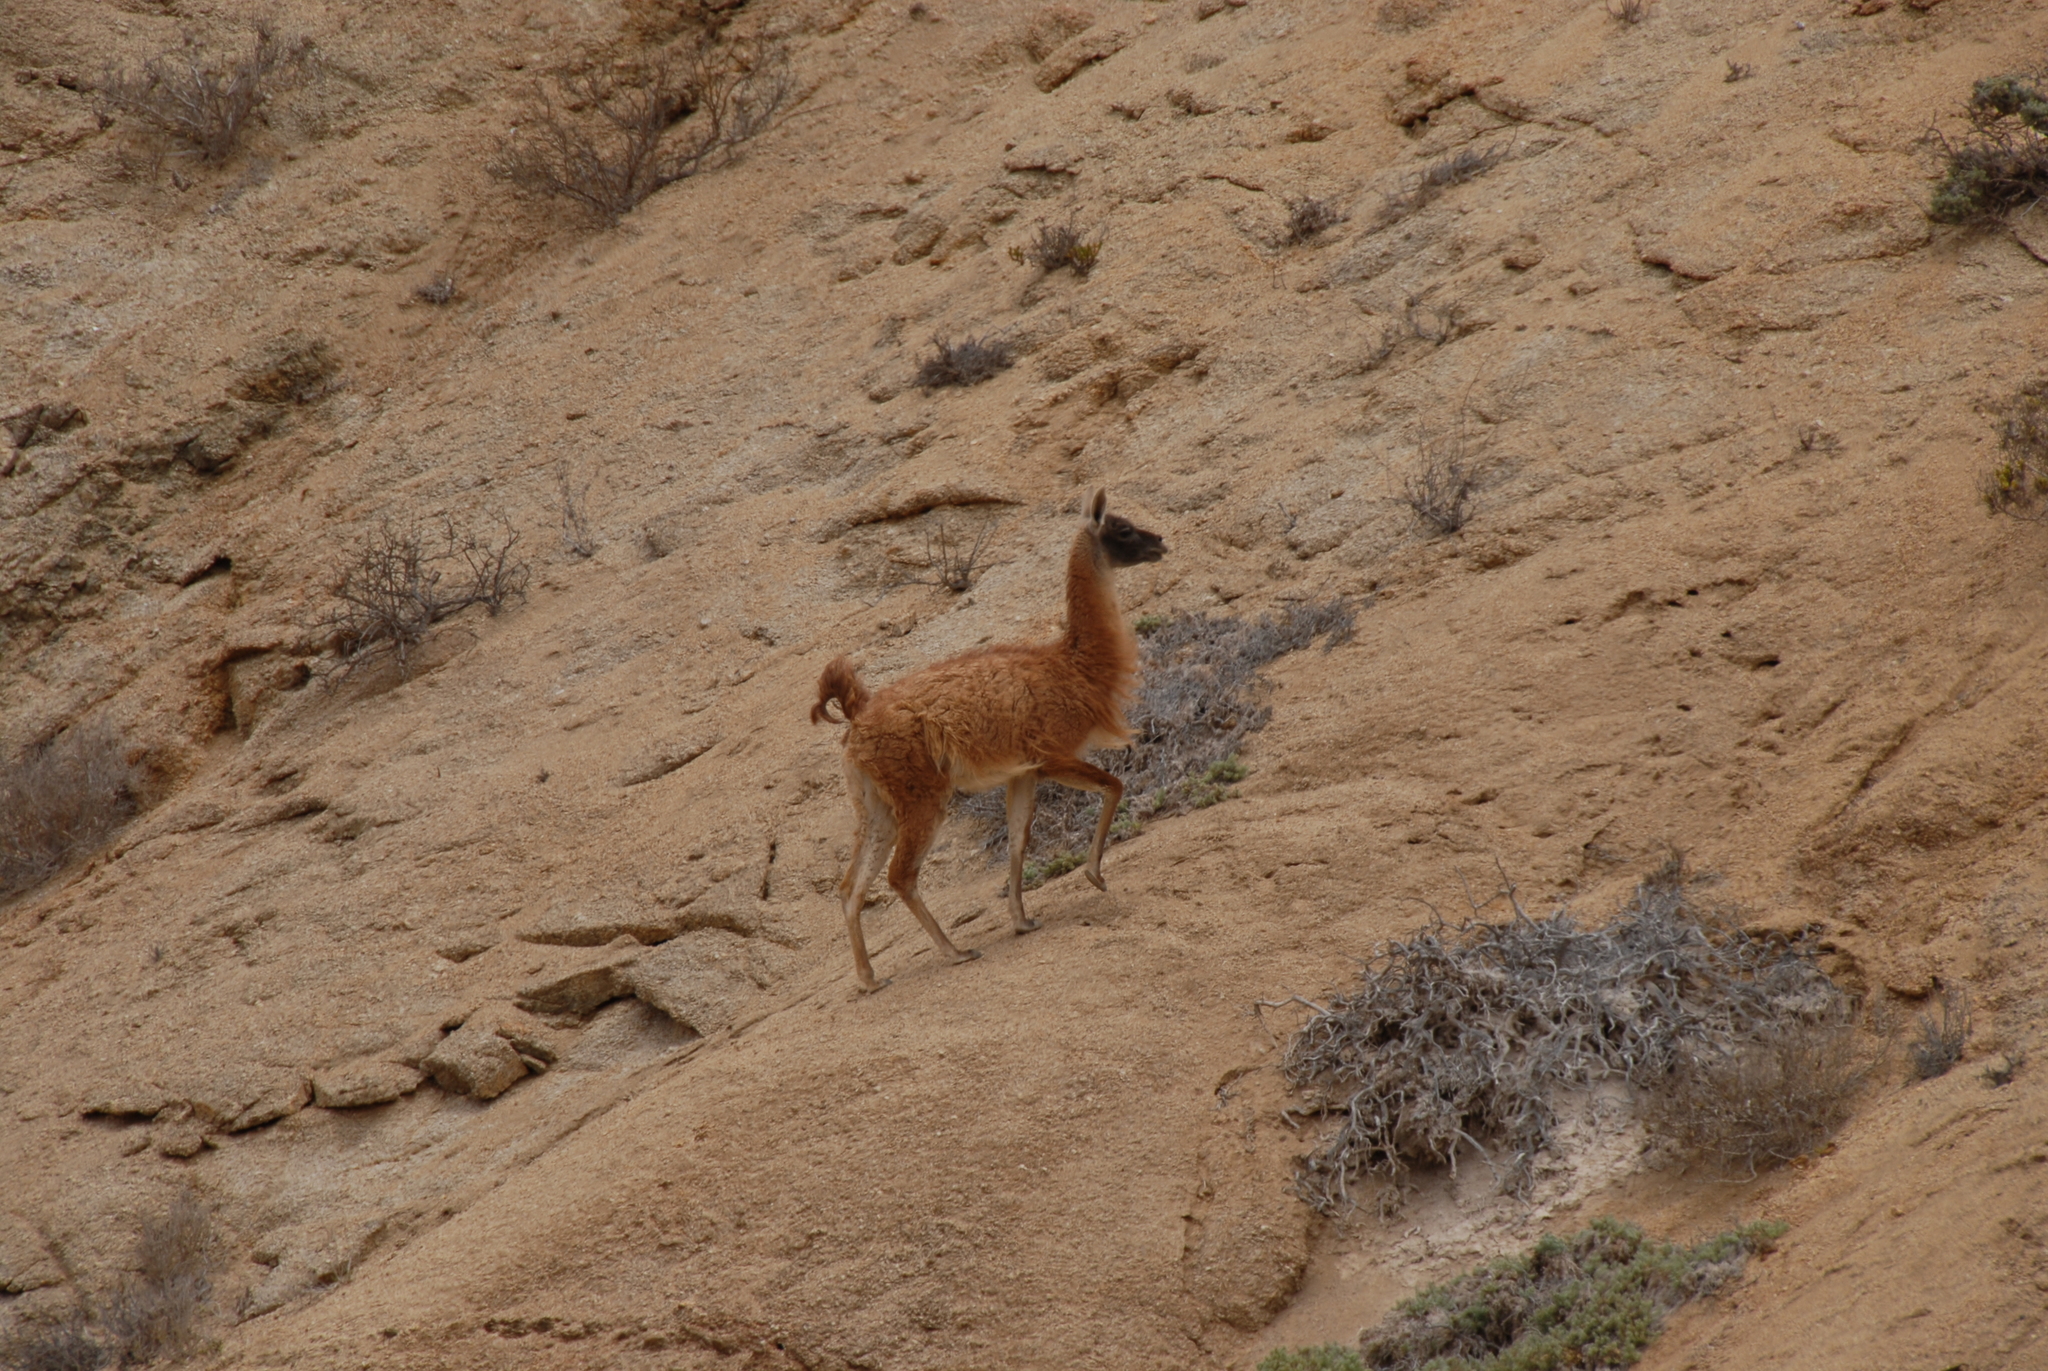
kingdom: Animalia
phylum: Chordata
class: Mammalia
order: Artiodactyla
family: Camelidae
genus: Lama
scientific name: Lama glama
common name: Llama
